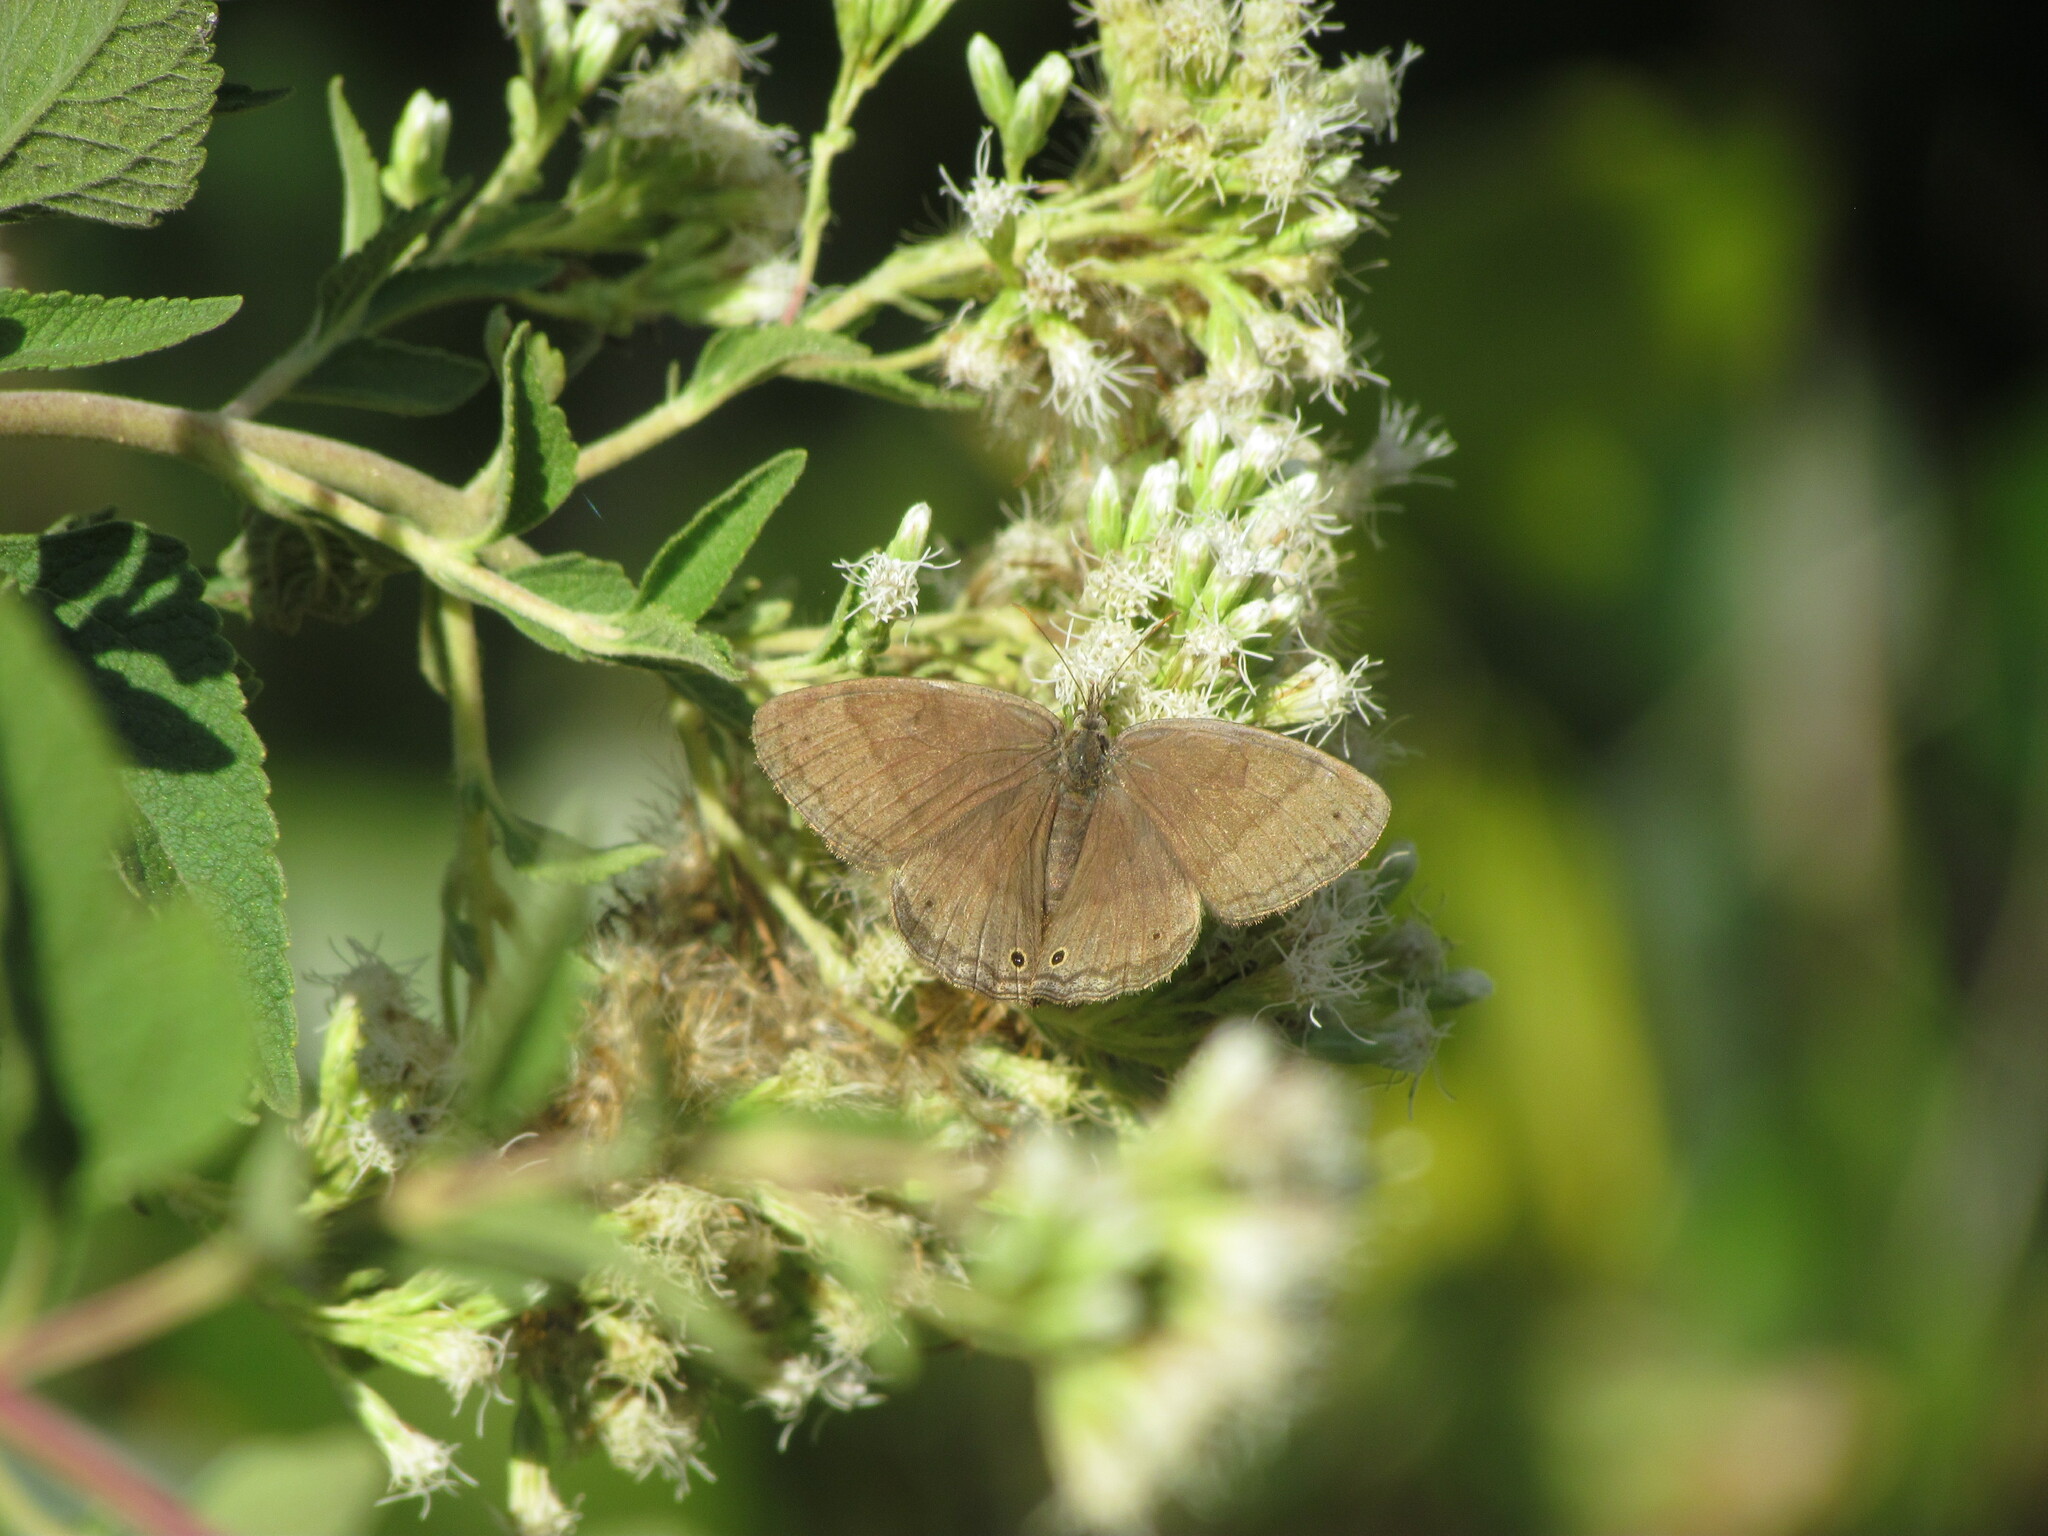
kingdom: Animalia
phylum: Arthropoda
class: Insecta
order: Lepidoptera
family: Nymphalidae
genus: Yphthimoides
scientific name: Yphthimoides celmis
